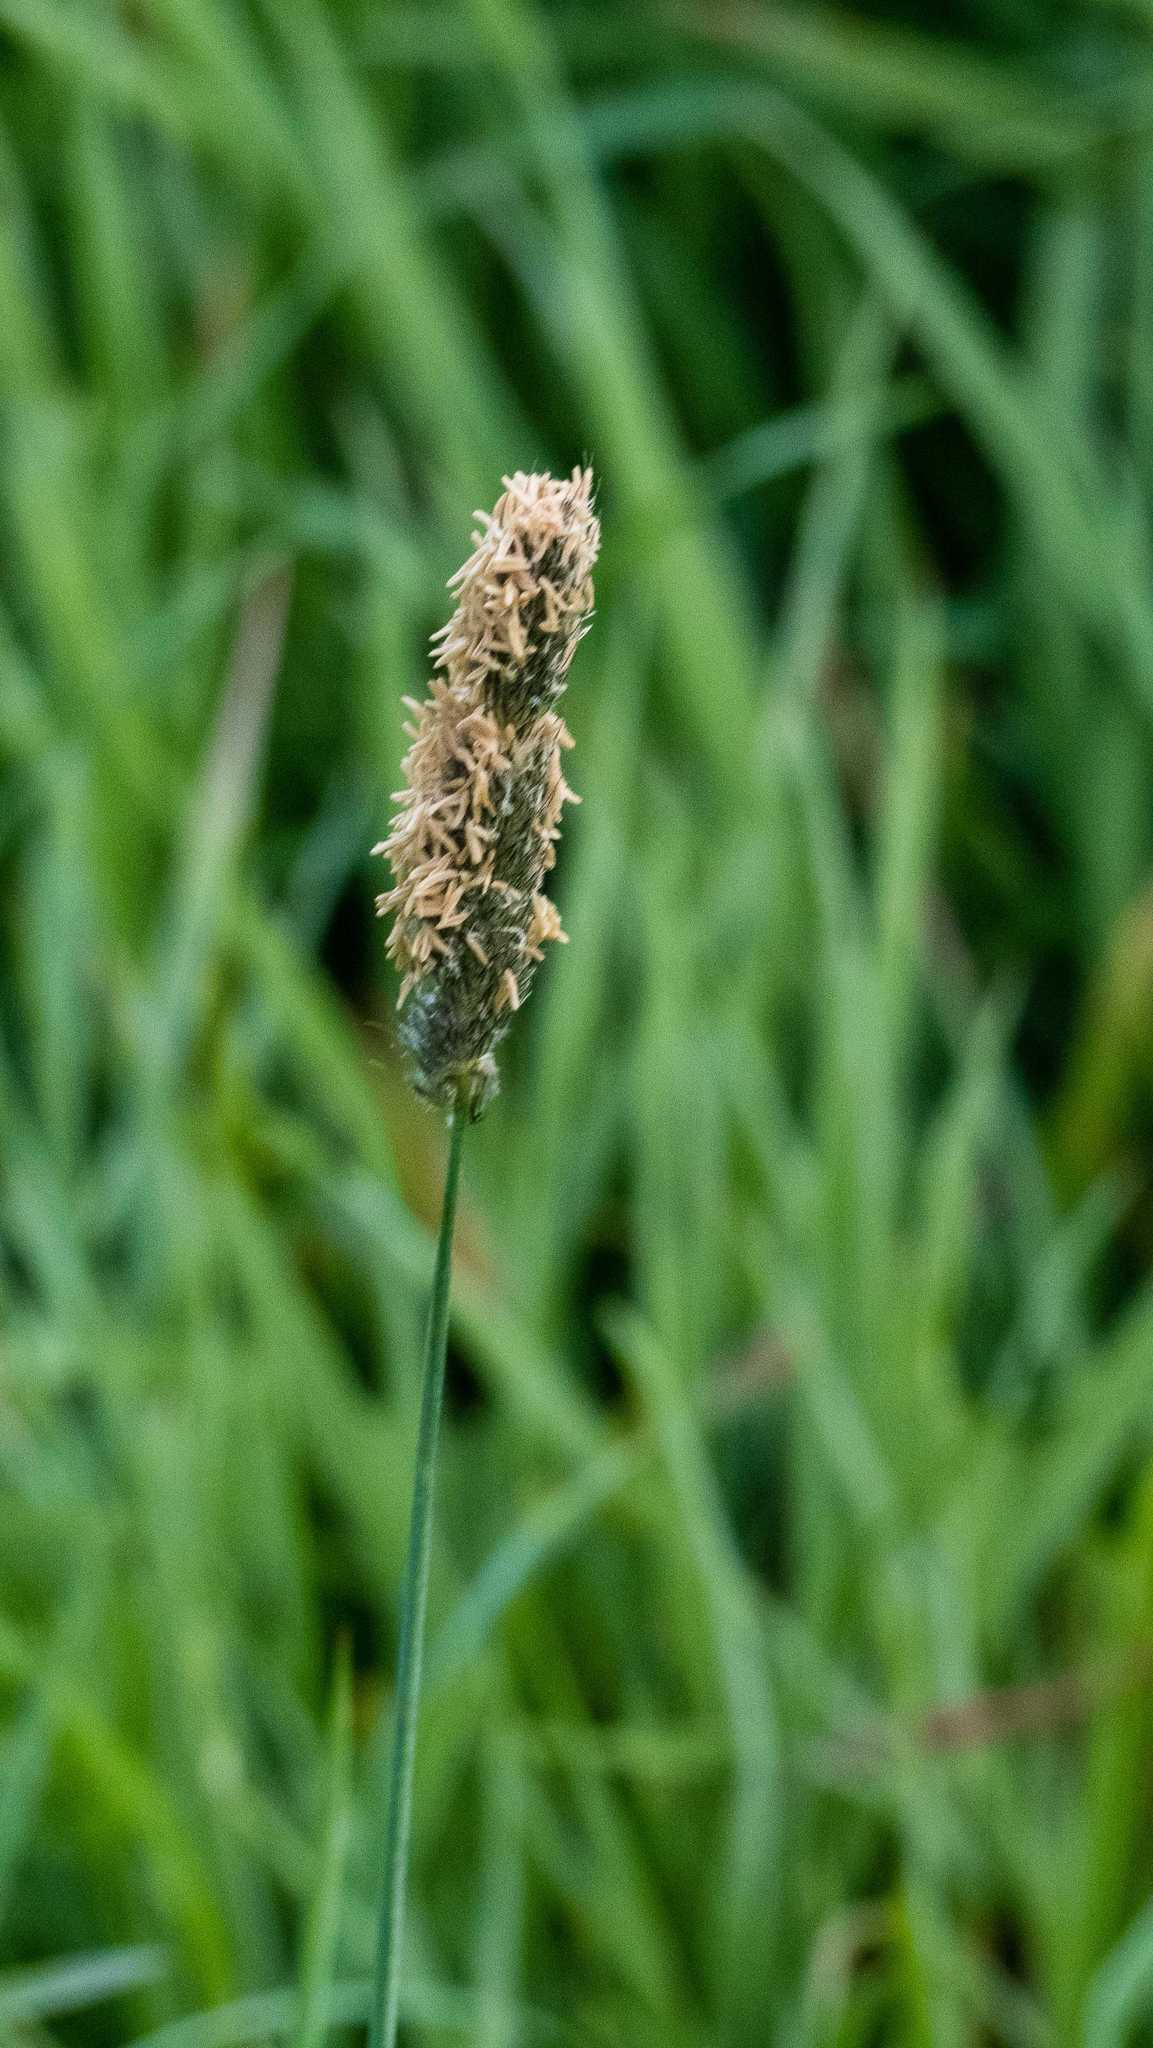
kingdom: Plantae
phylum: Tracheophyta
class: Liliopsida
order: Poales
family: Poaceae
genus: Alopecurus
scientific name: Alopecurus pratensis
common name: Meadow foxtail
